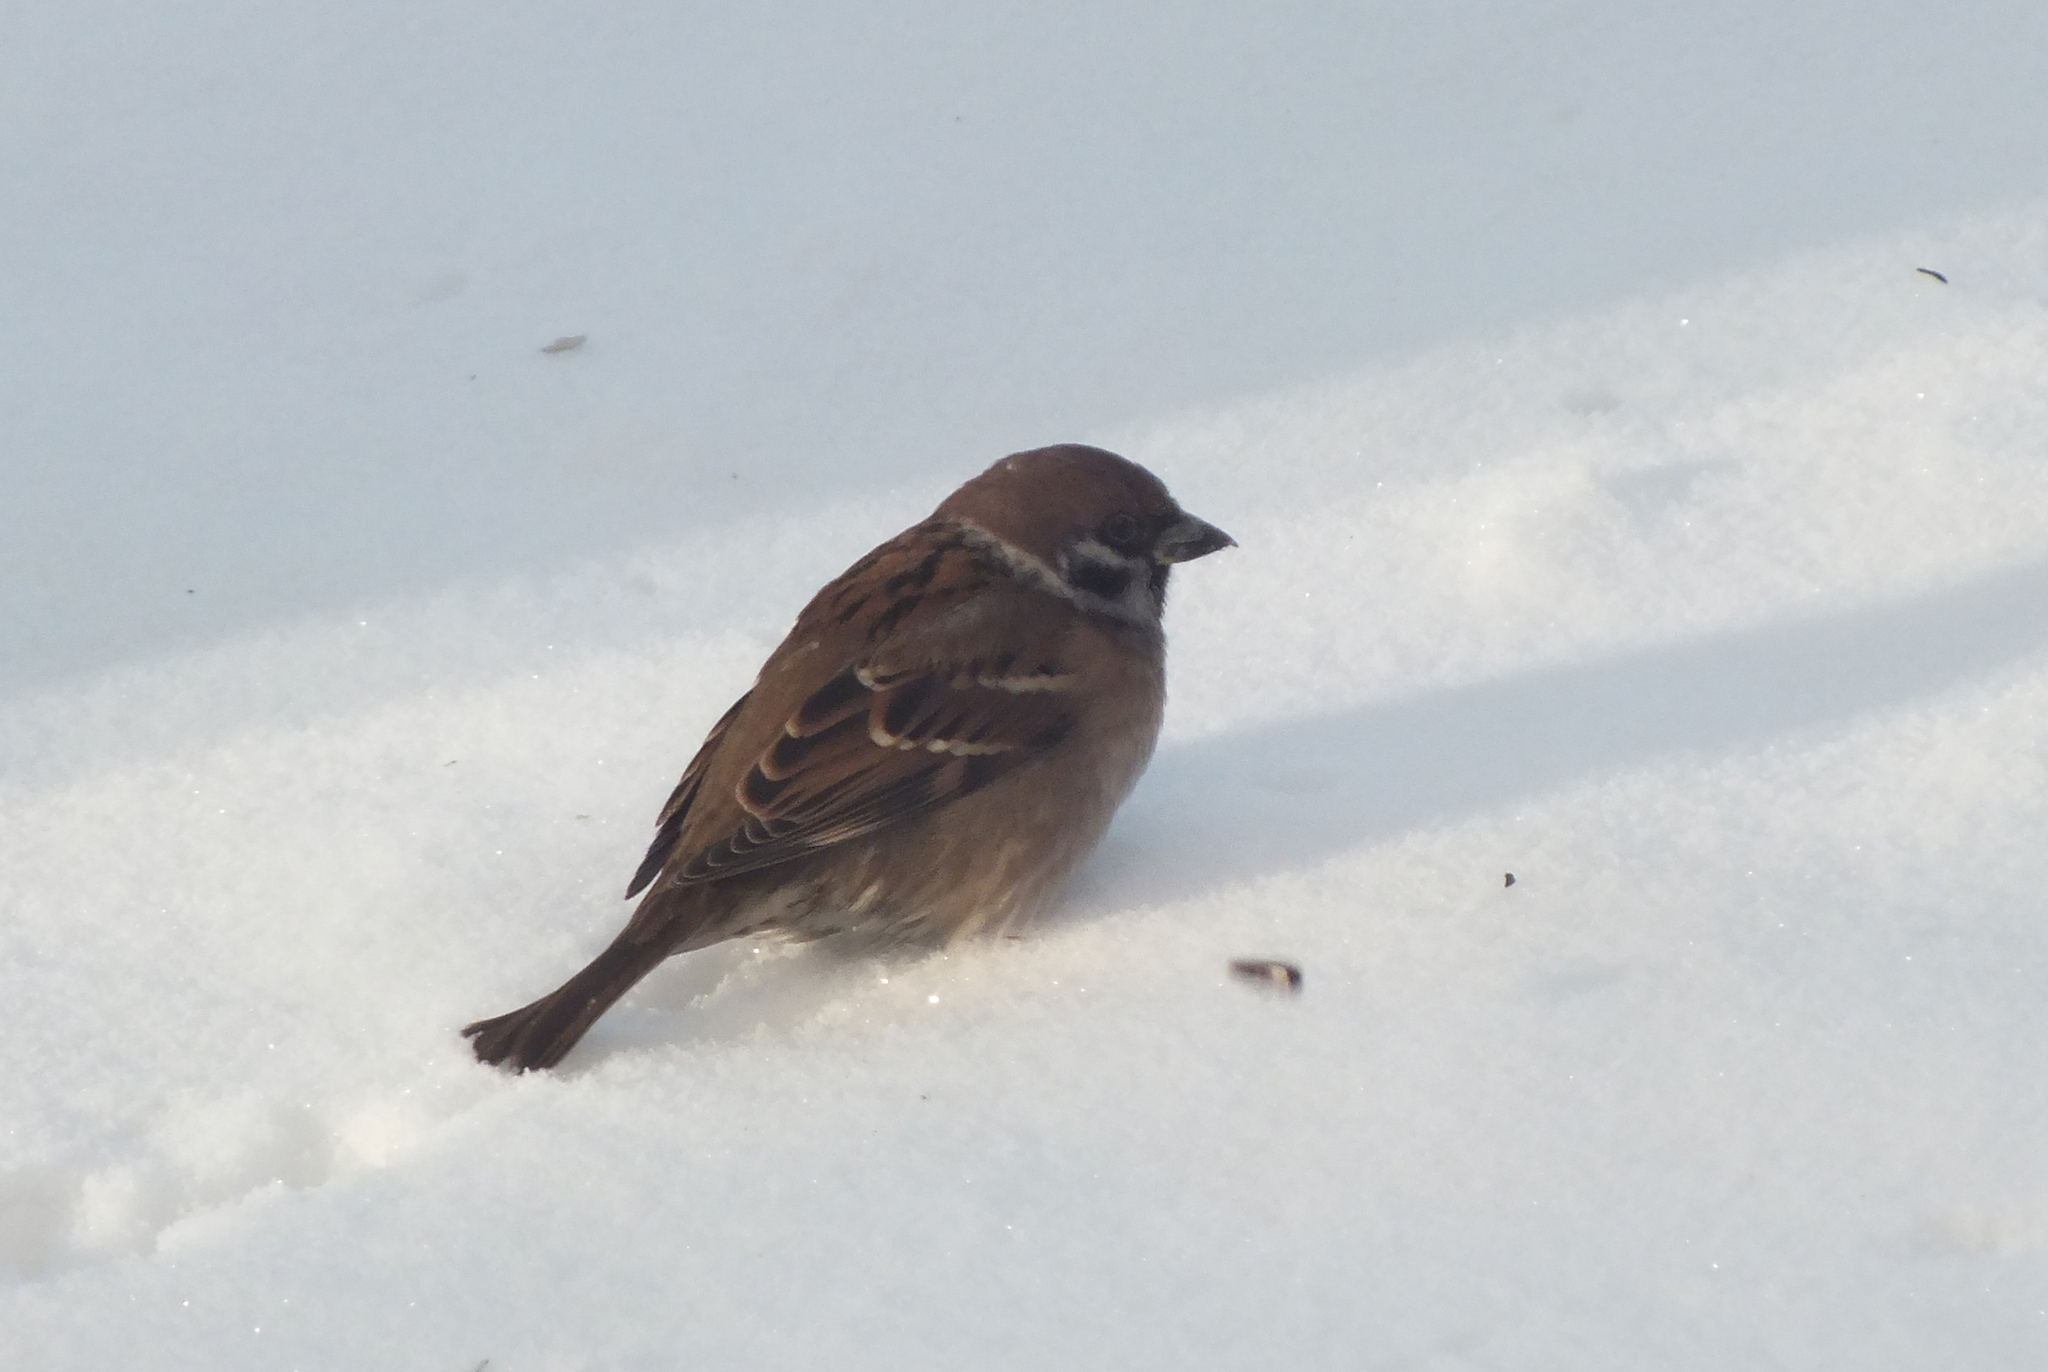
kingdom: Animalia
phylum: Chordata
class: Aves
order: Passeriformes
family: Passeridae
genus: Passer
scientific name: Passer montanus
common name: Eurasian tree sparrow
